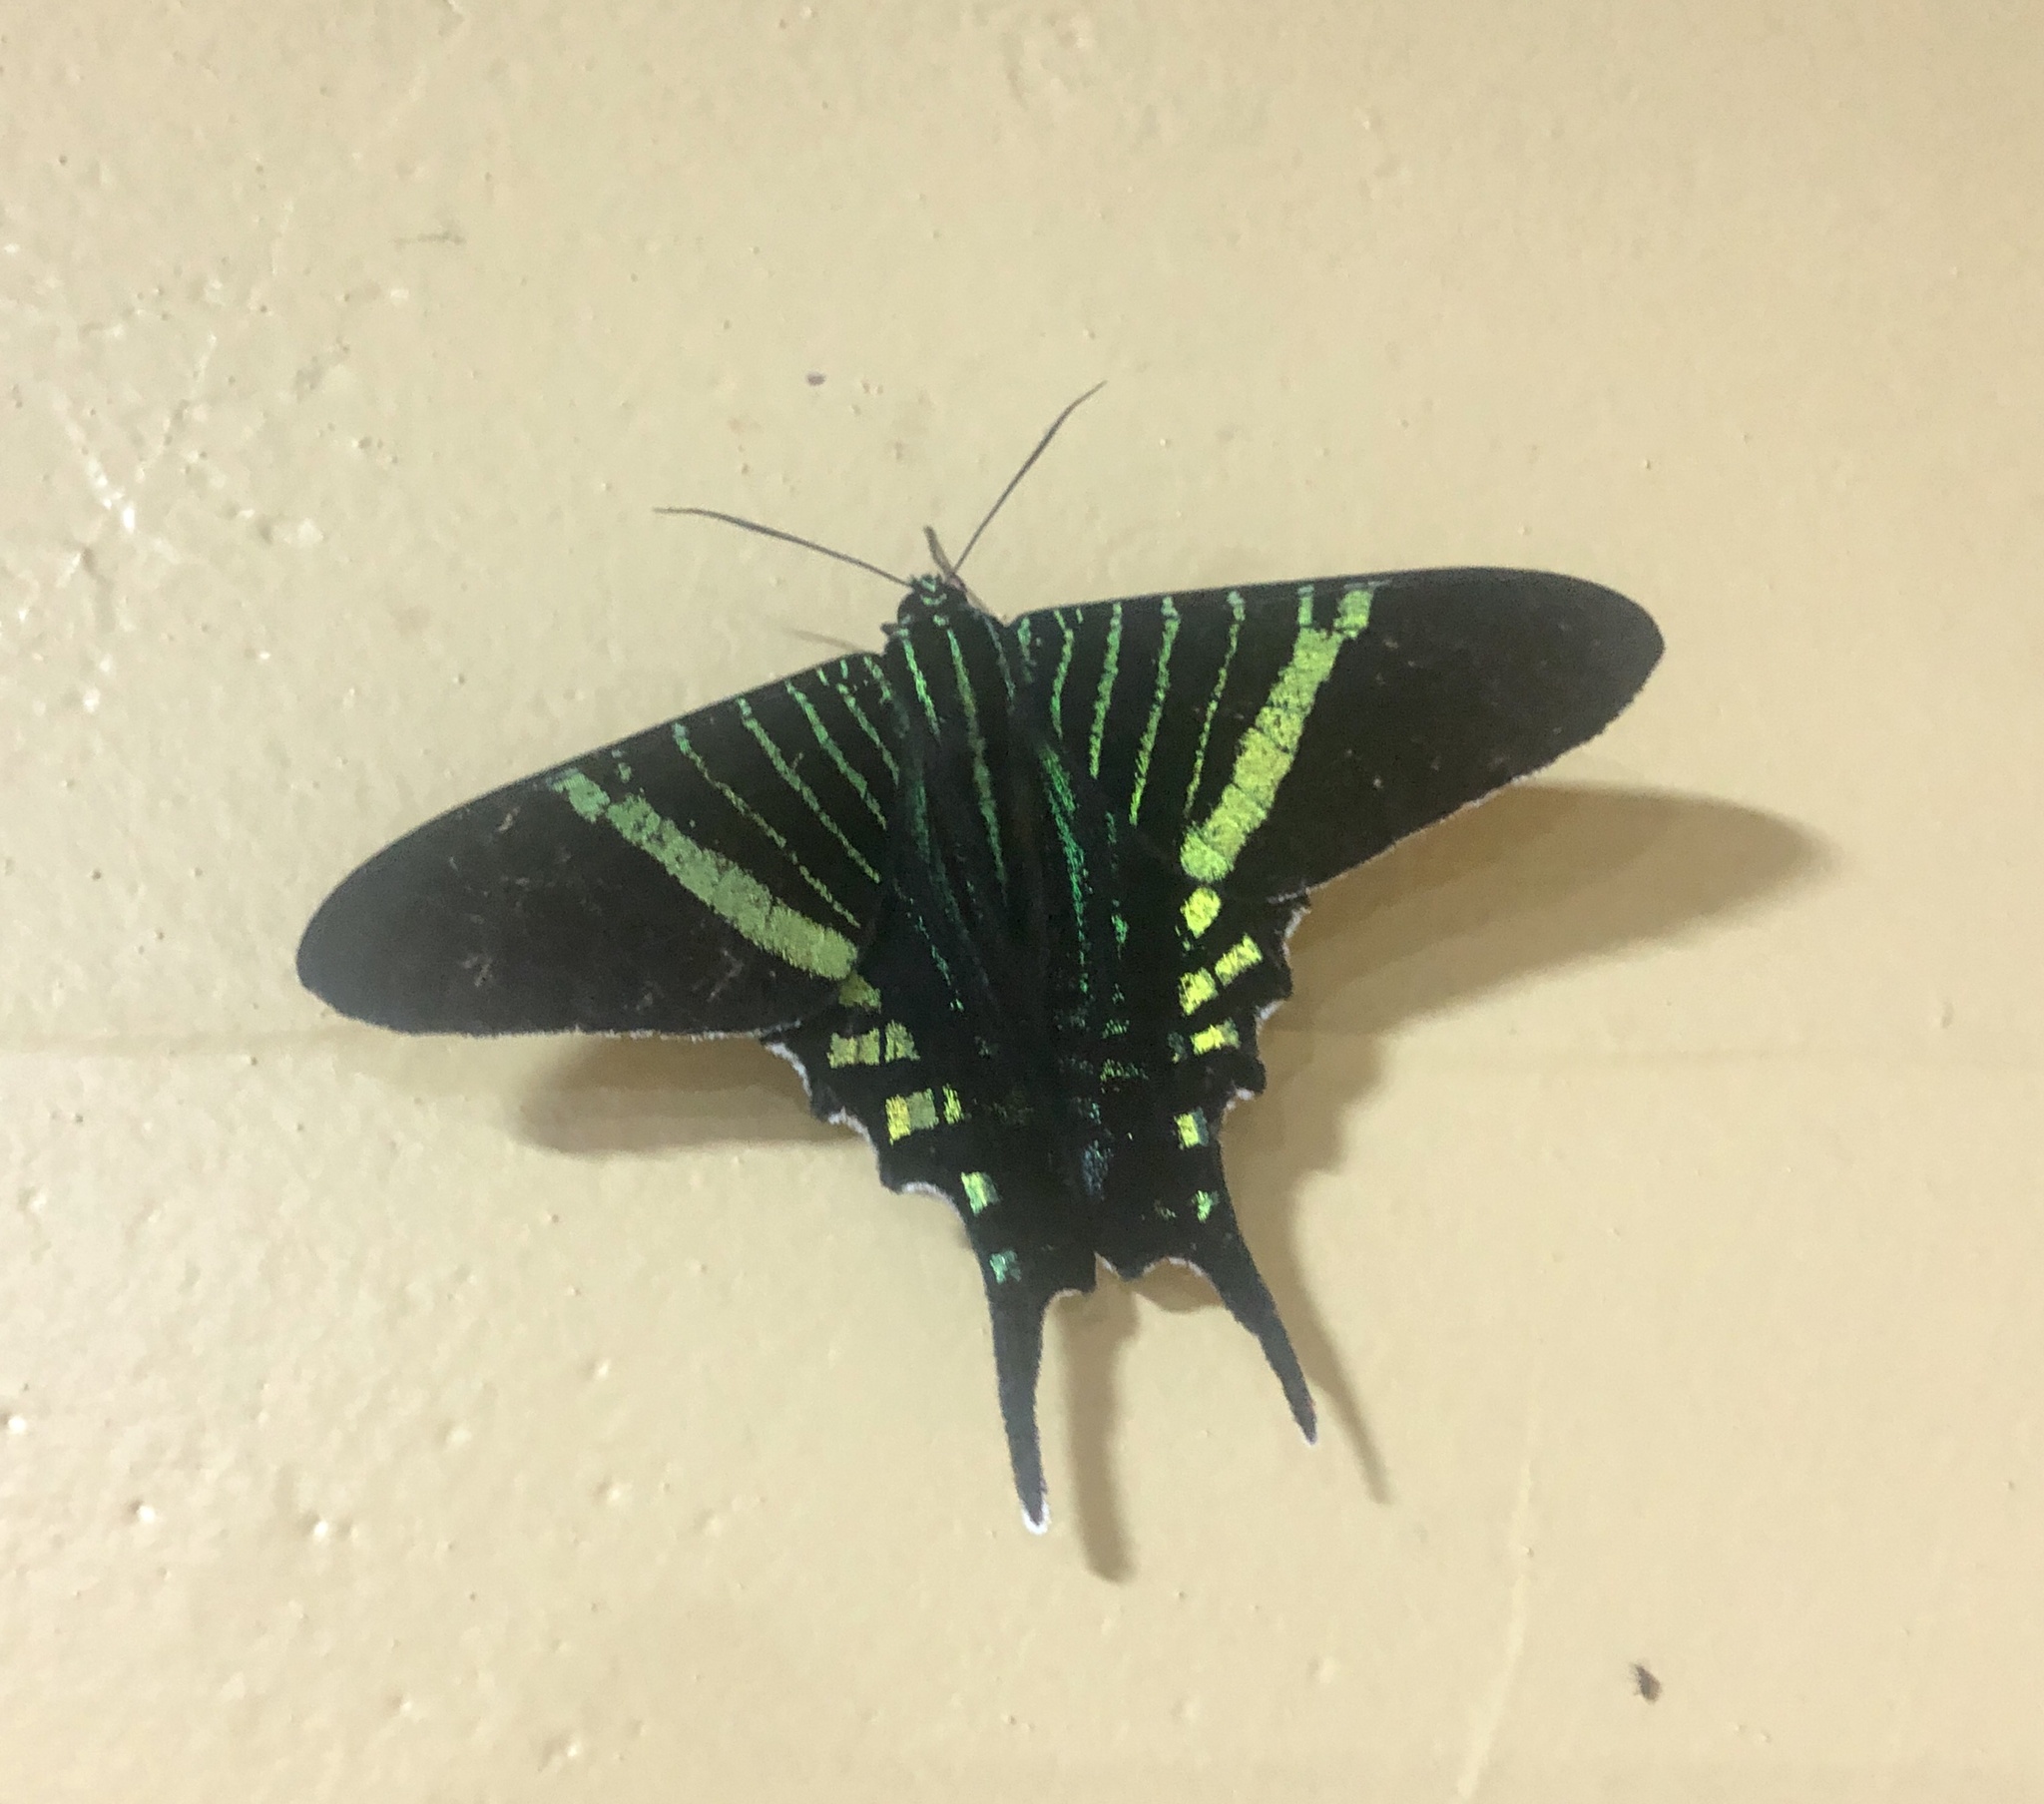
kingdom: Animalia
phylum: Arthropoda
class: Insecta
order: Lepidoptera
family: Uraniidae
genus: Urania
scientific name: Urania fulgens
